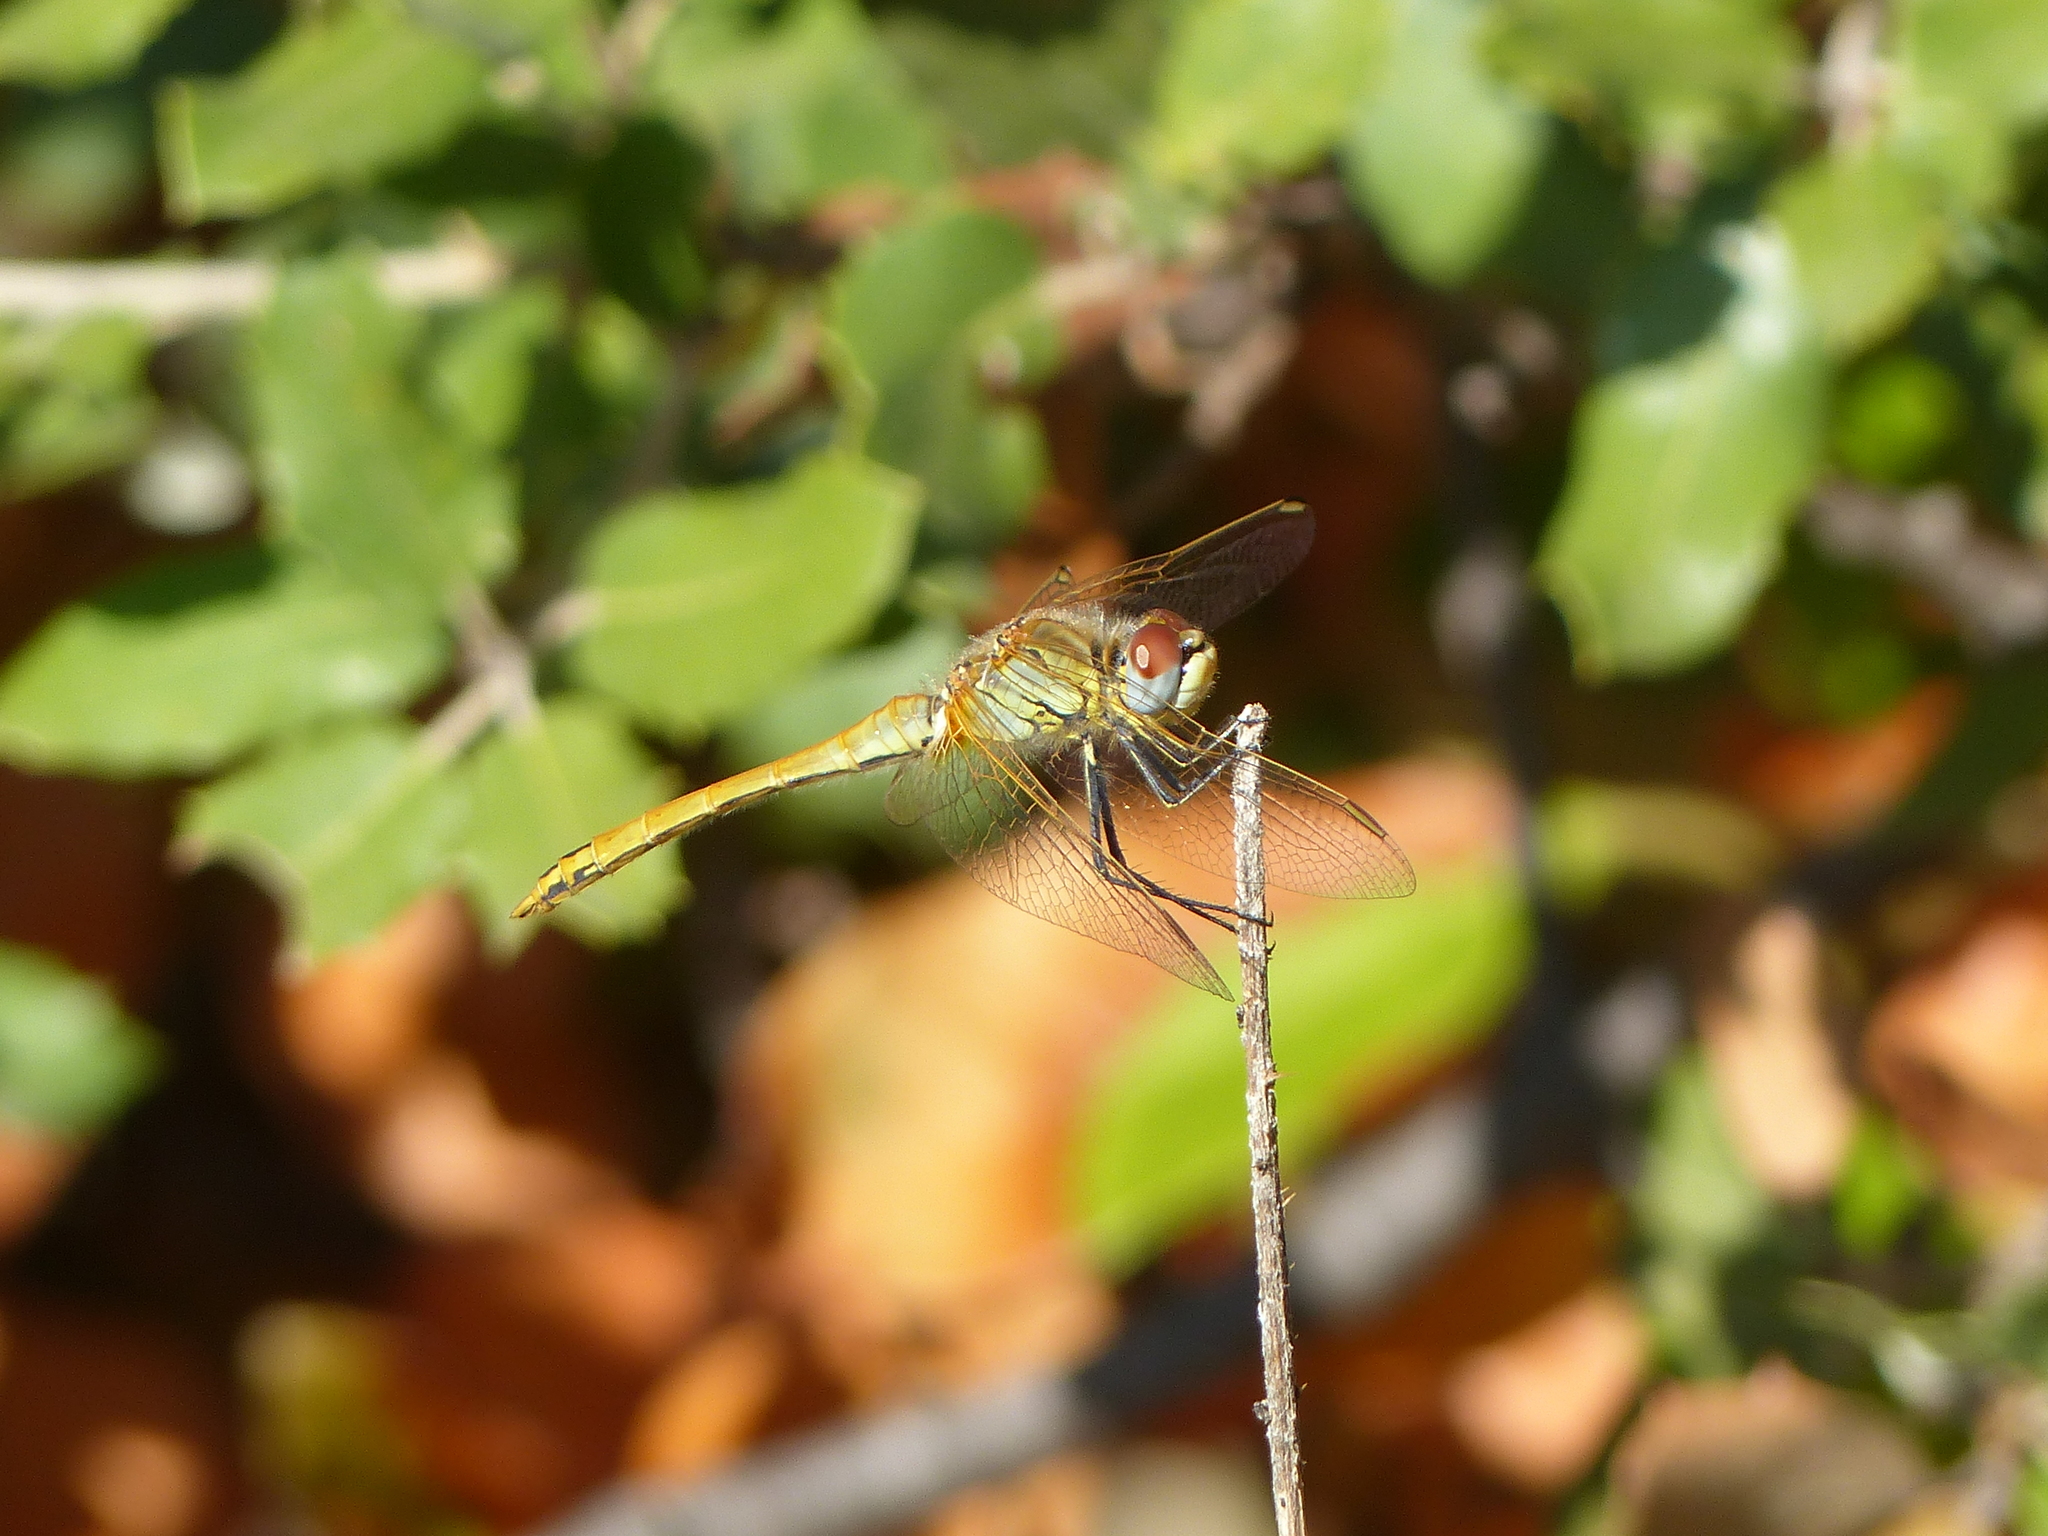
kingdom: Animalia
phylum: Arthropoda
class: Insecta
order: Odonata
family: Libellulidae
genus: Sympetrum
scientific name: Sympetrum fonscolombii
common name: Red-veined darter
